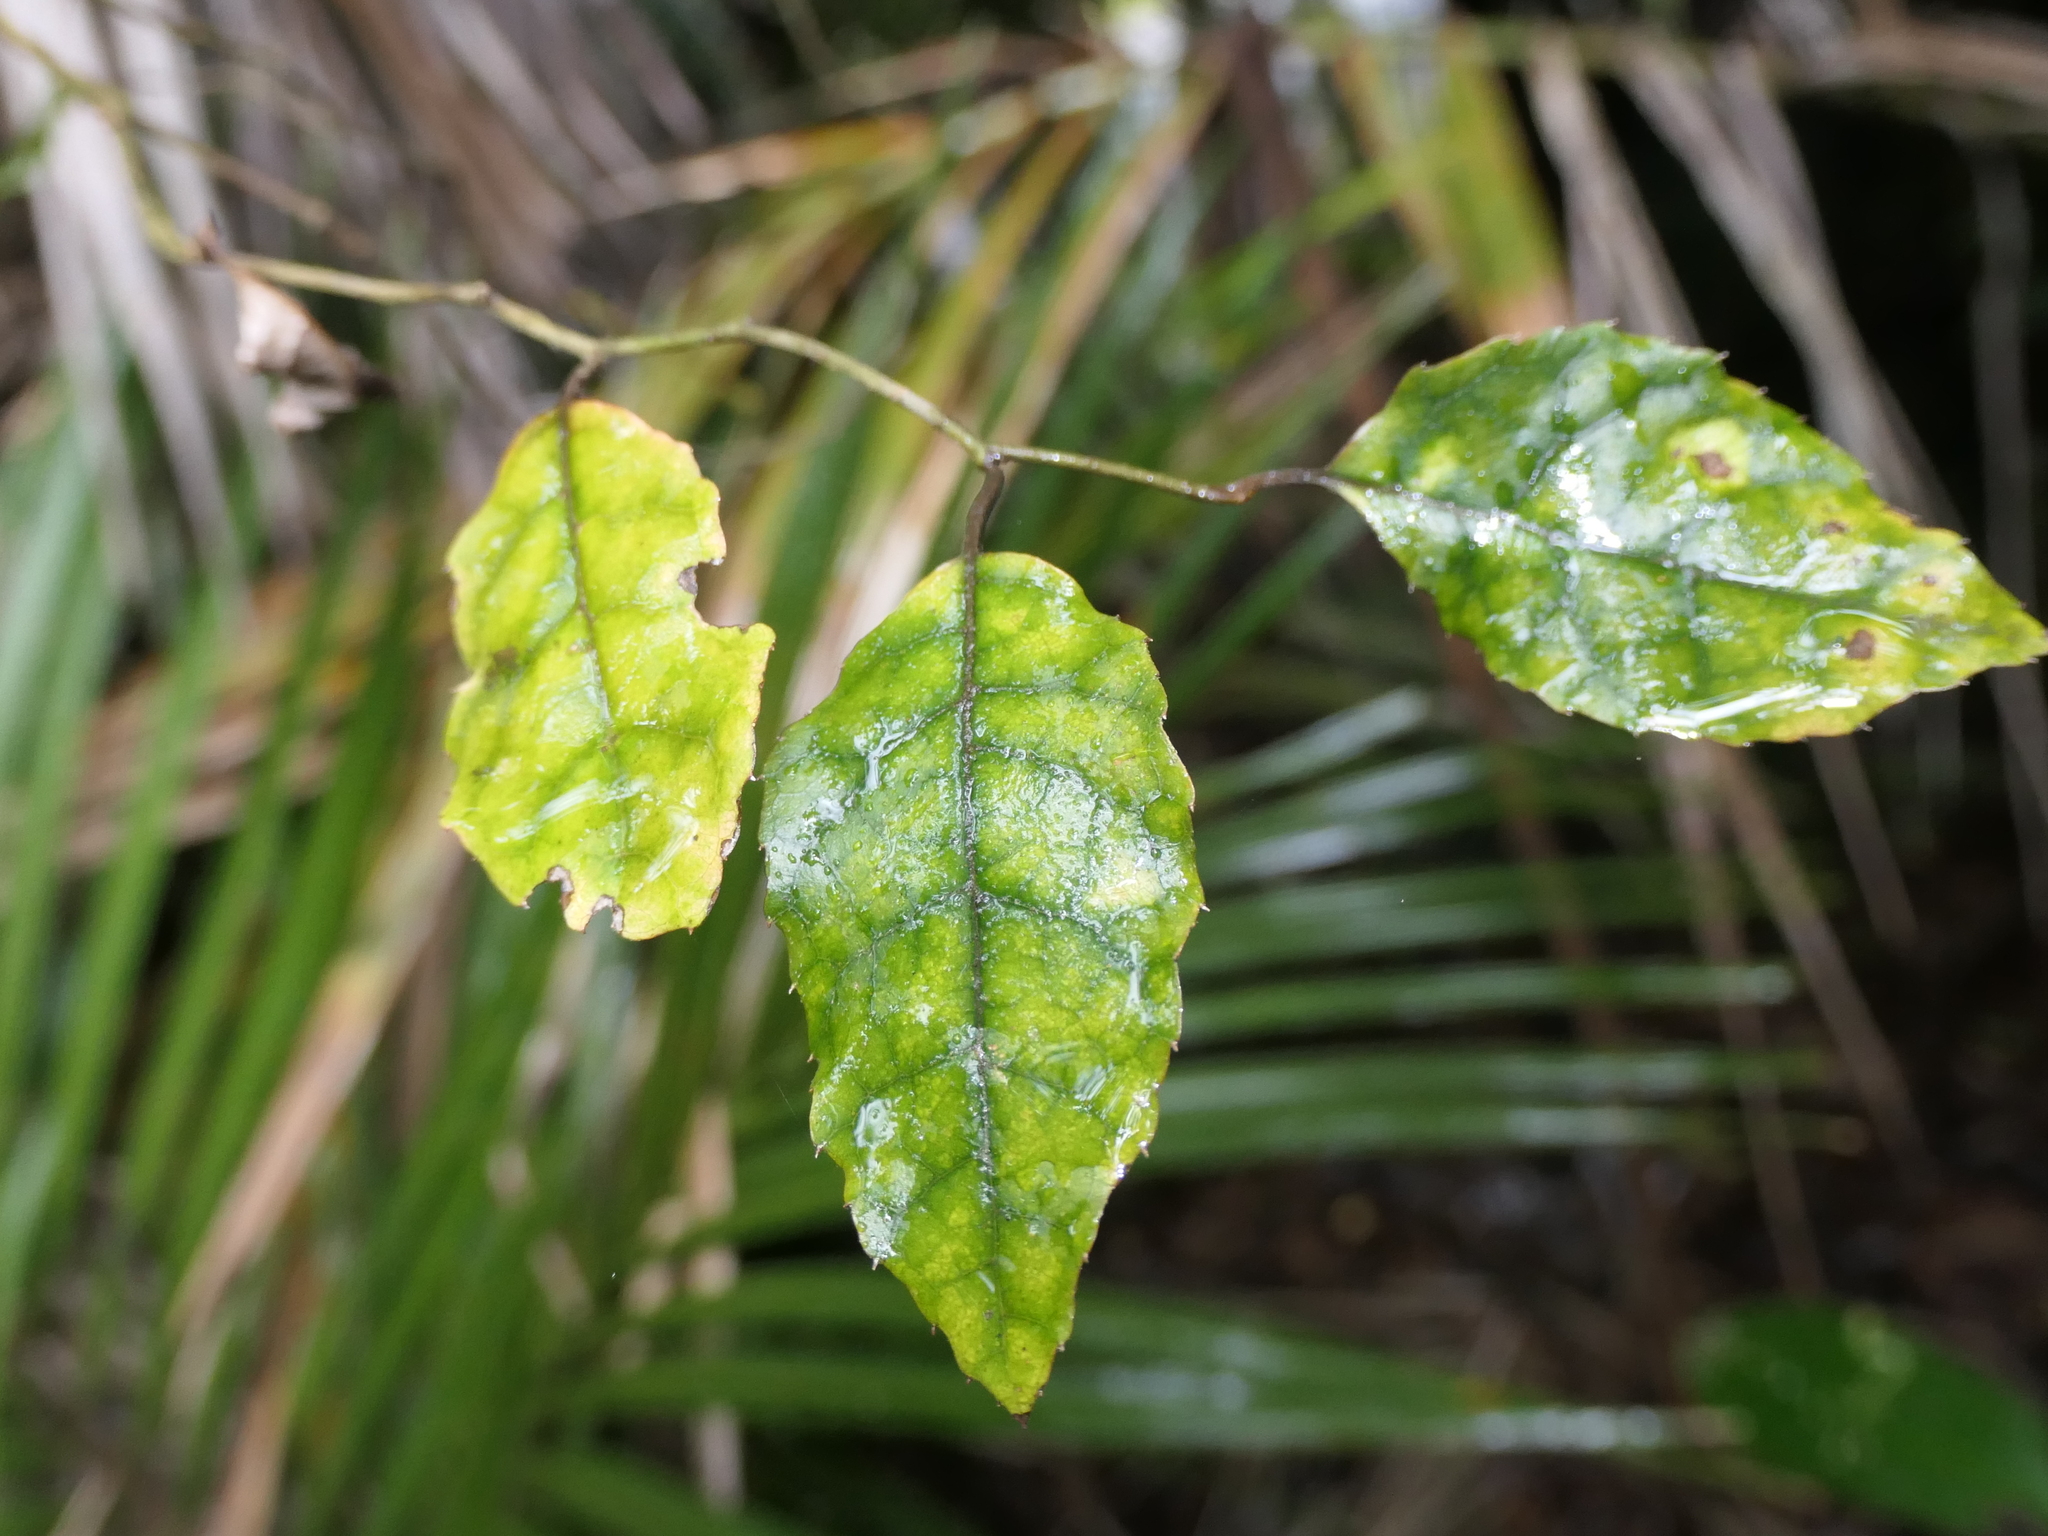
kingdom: Plantae
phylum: Tracheophyta
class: Magnoliopsida
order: Asterales
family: Rousseaceae
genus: Carpodetus
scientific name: Carpodetus serratus
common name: White mapau
